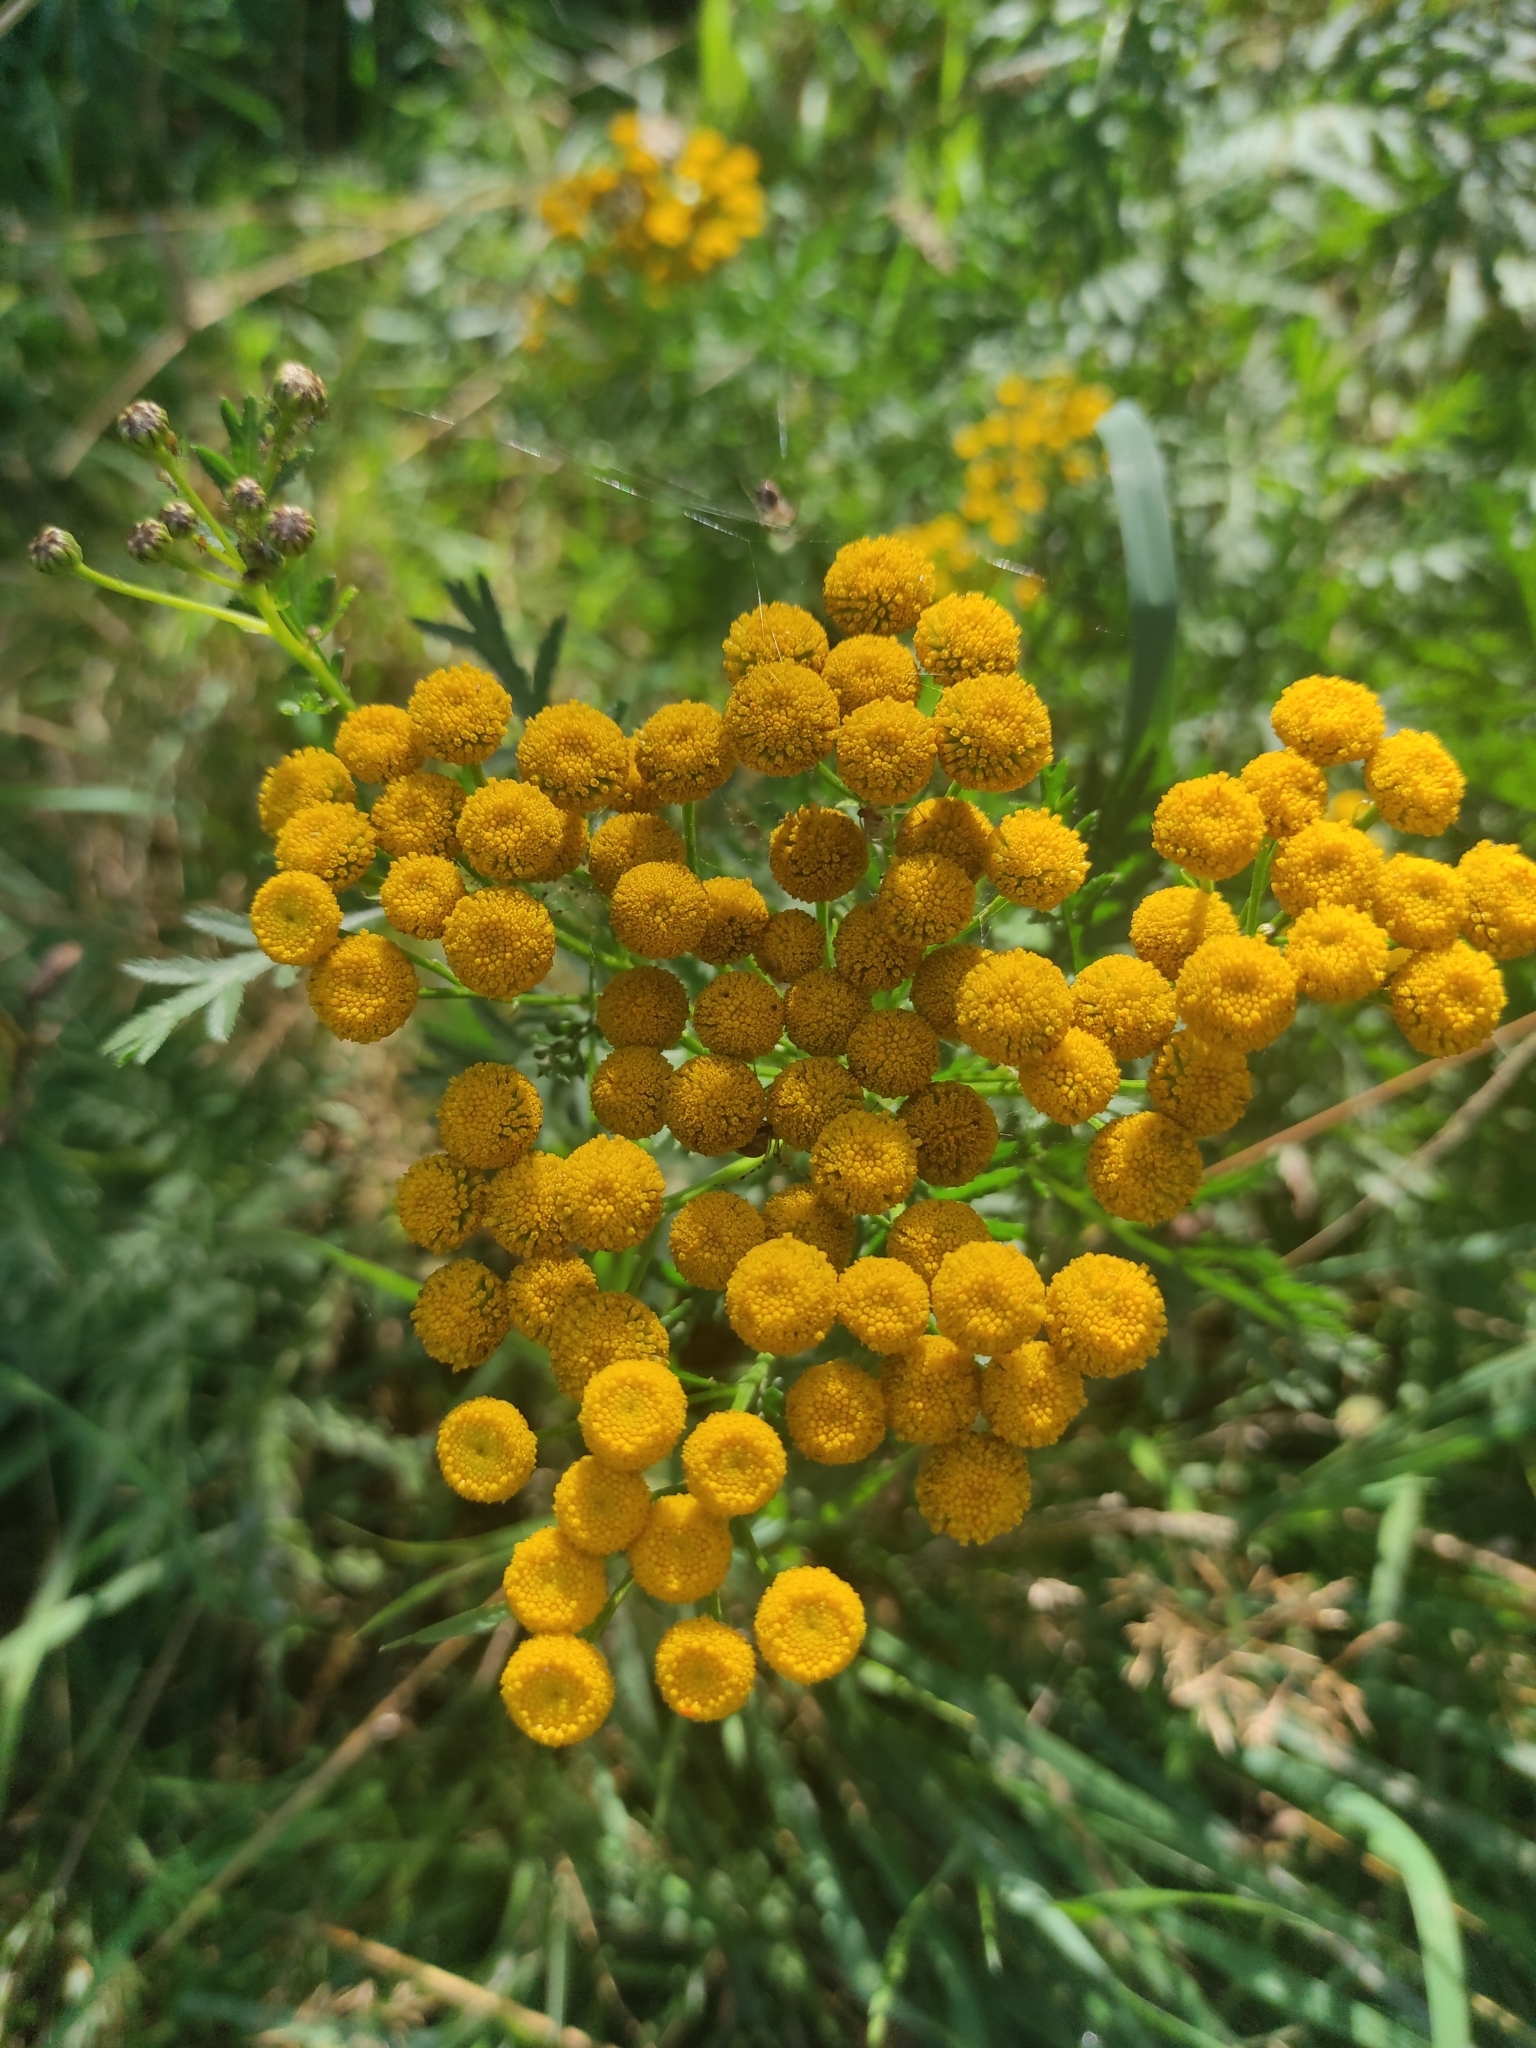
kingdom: Plantae
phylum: Tracheophyta
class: Magnoliopsida
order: Asterales
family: Asteraceae
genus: Tanacetum
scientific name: Tanacetum vulgare
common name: Common tansy
